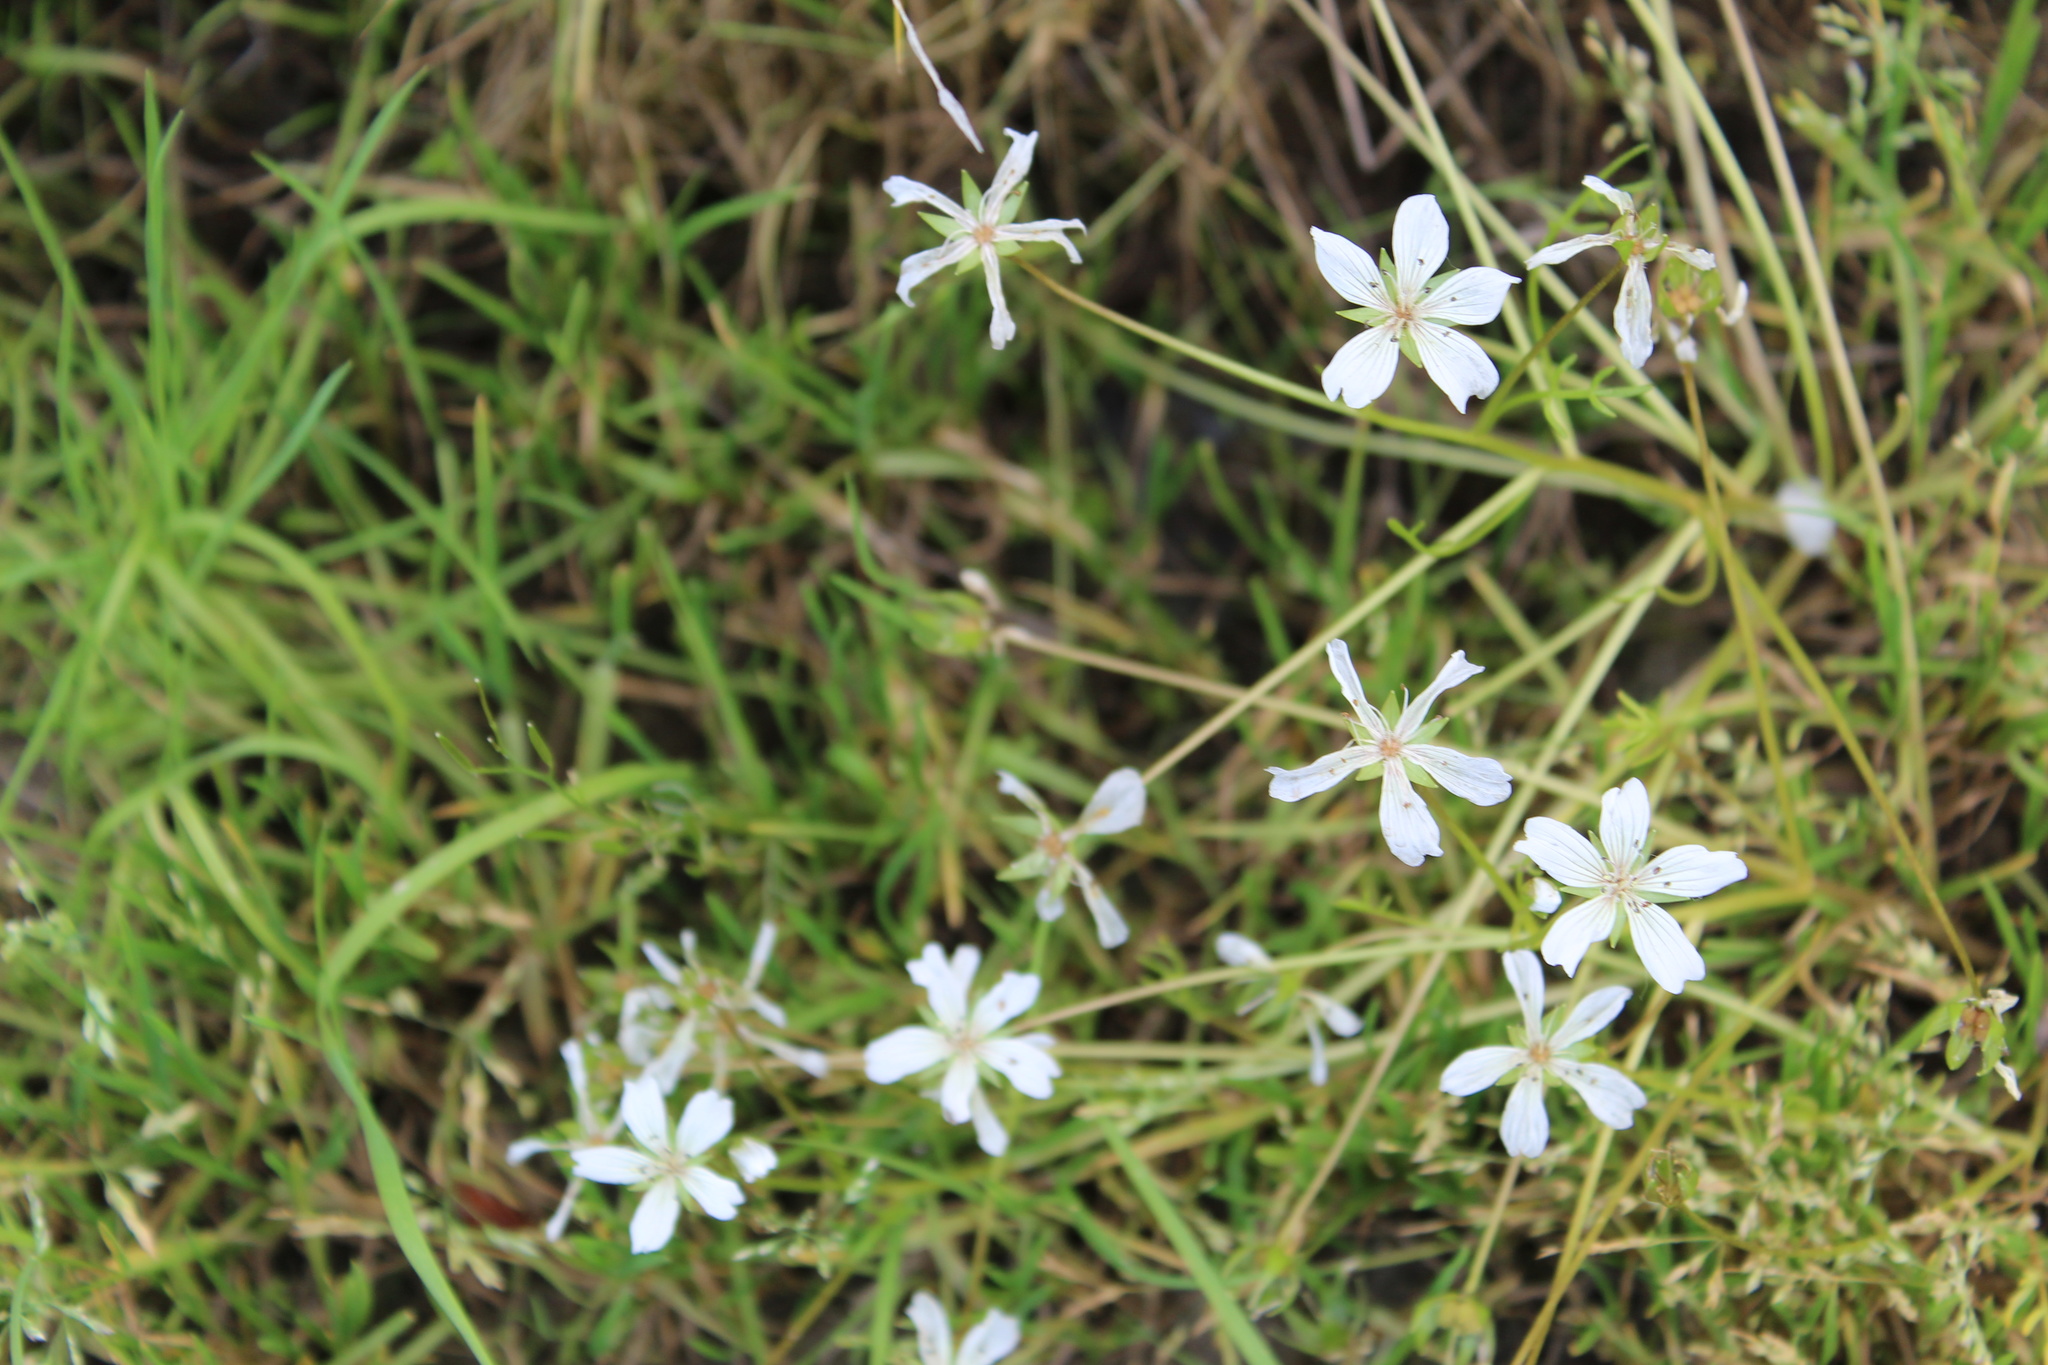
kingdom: Plantae
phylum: Tracheophyta
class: Magnoliopsida
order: Brassicales
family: Limnanthaceae
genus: Limnanthes
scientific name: Limnanthes douglasii
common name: Meadow-foam
